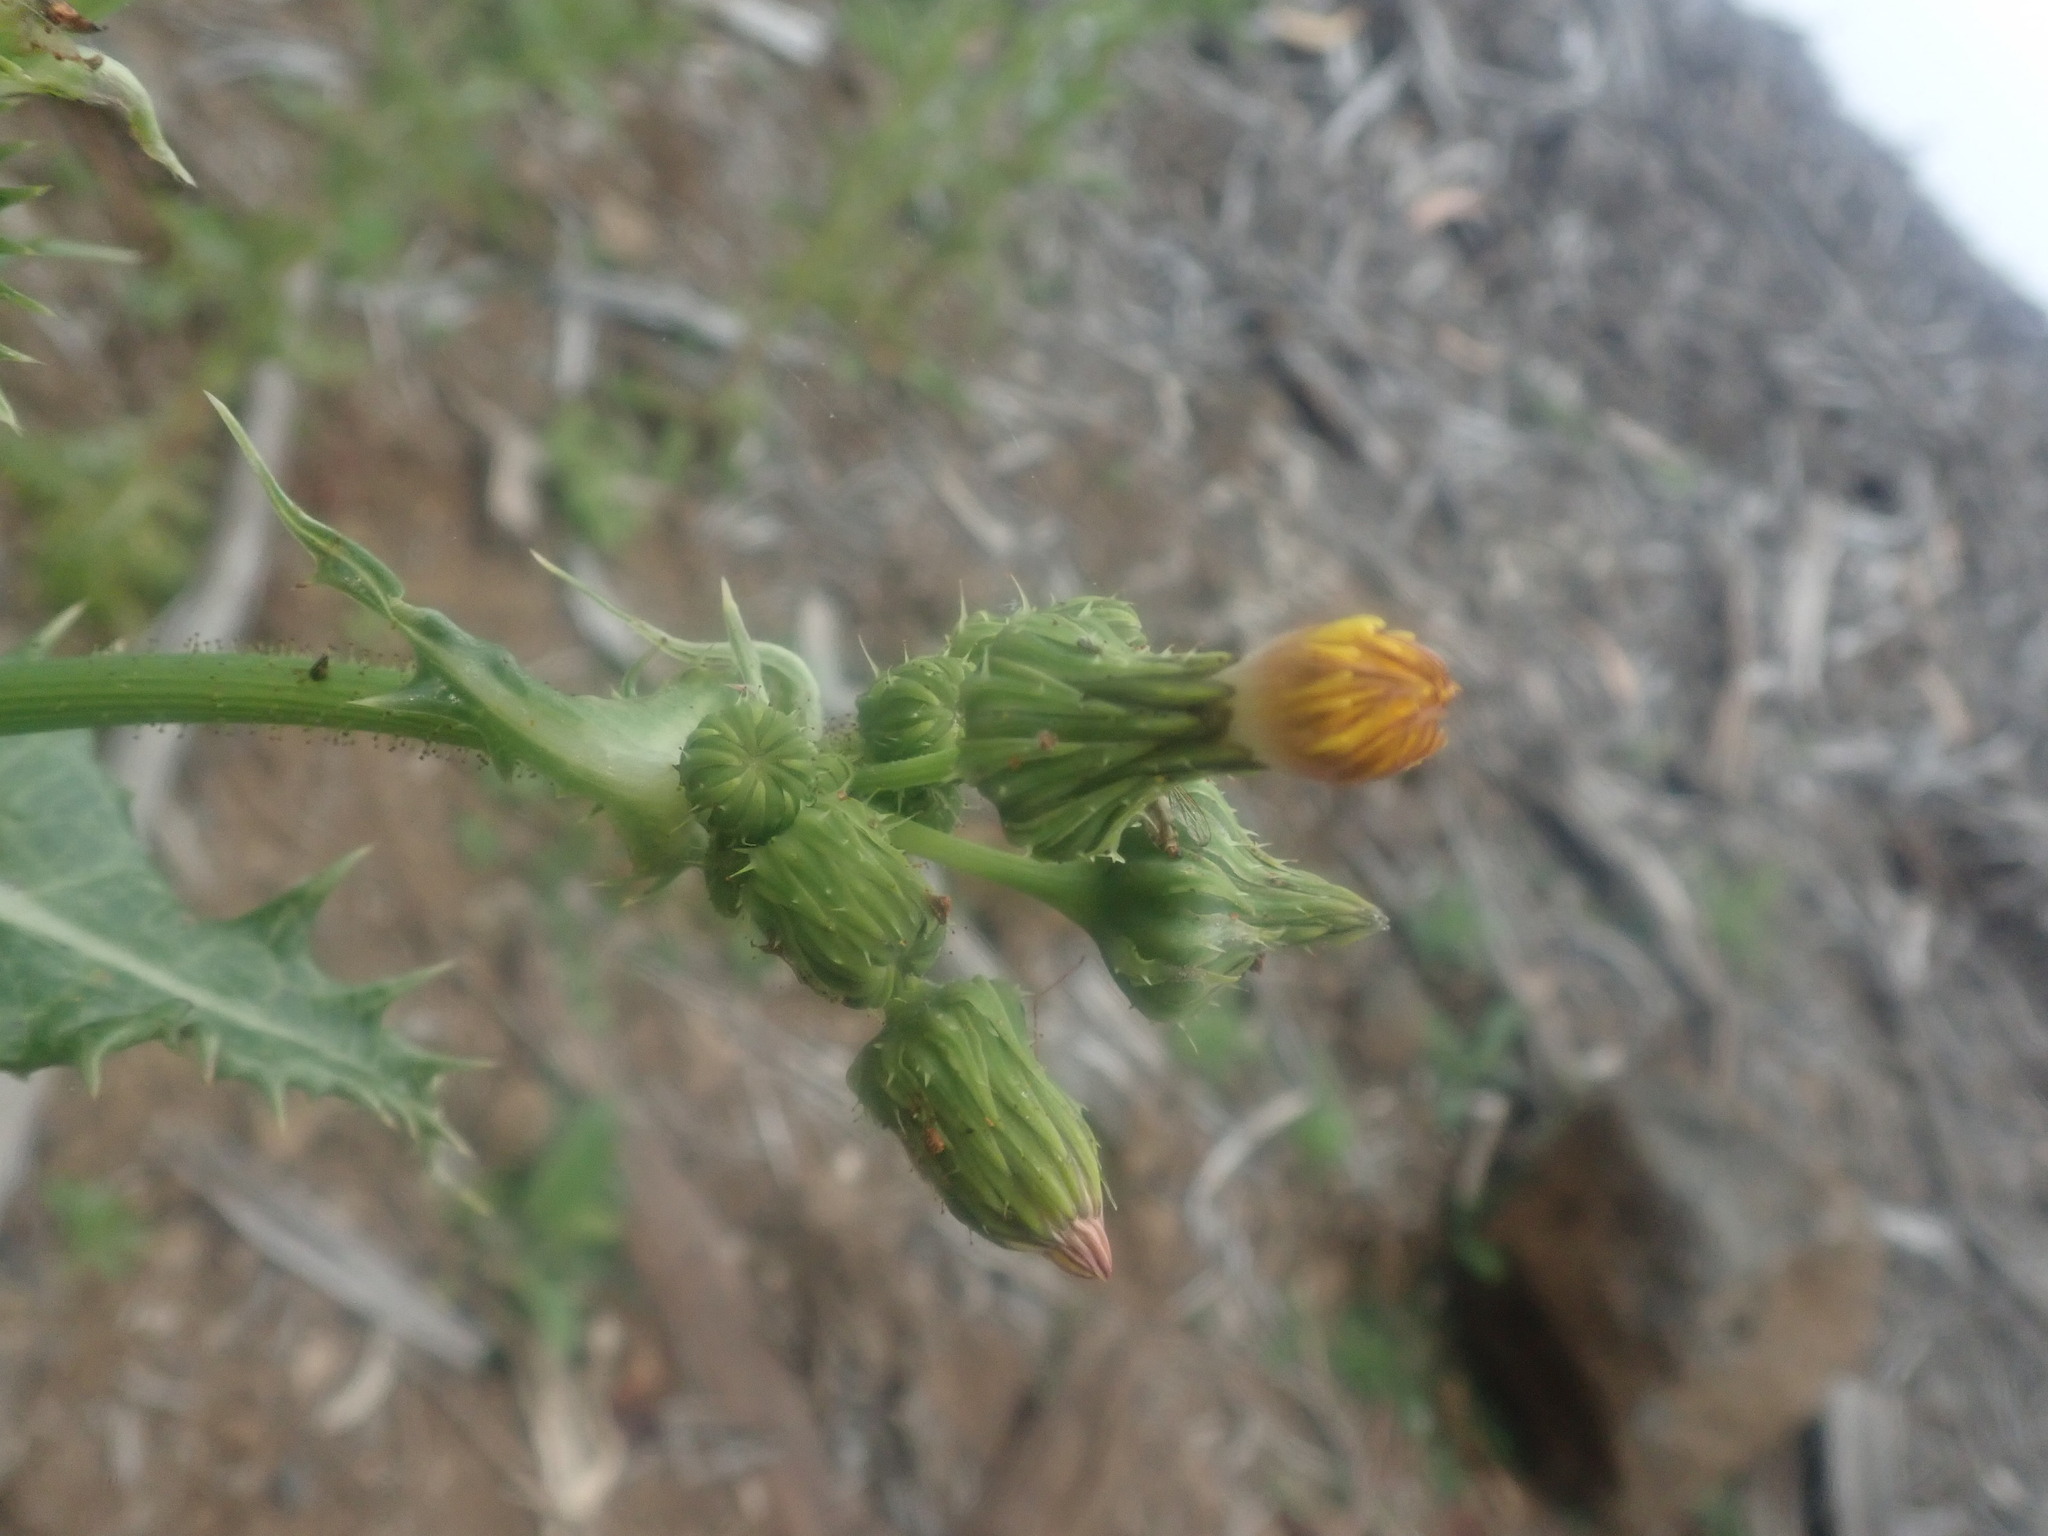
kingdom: Plantae
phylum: Tracheophyta
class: Magnoliopsida
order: Asterales
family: Asteraceae
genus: Sonchus
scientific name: Sonchus asper
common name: Prickly sow-thistle
